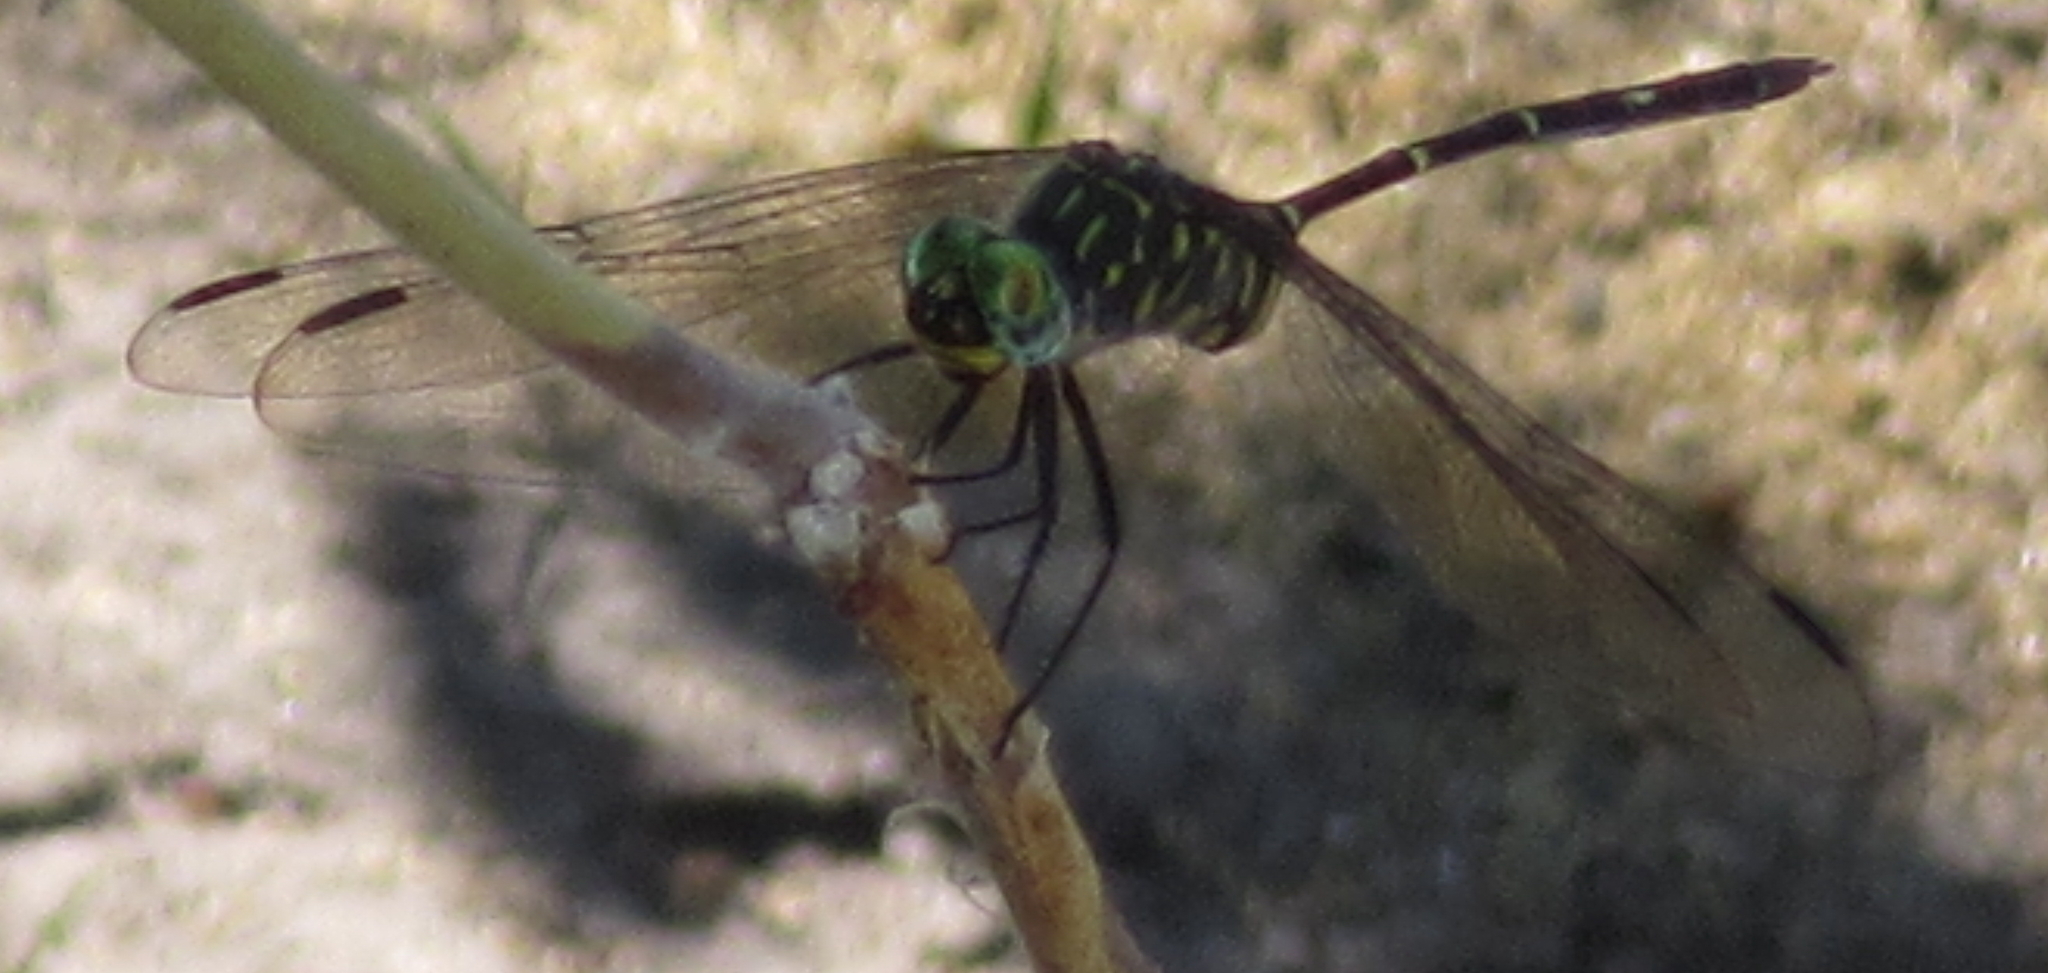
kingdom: Animalia
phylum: Arthropoda
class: Insecta
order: Odonata
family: Libellulidae
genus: Olpogastra
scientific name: Olpogastra lugubris
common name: Bottletail
